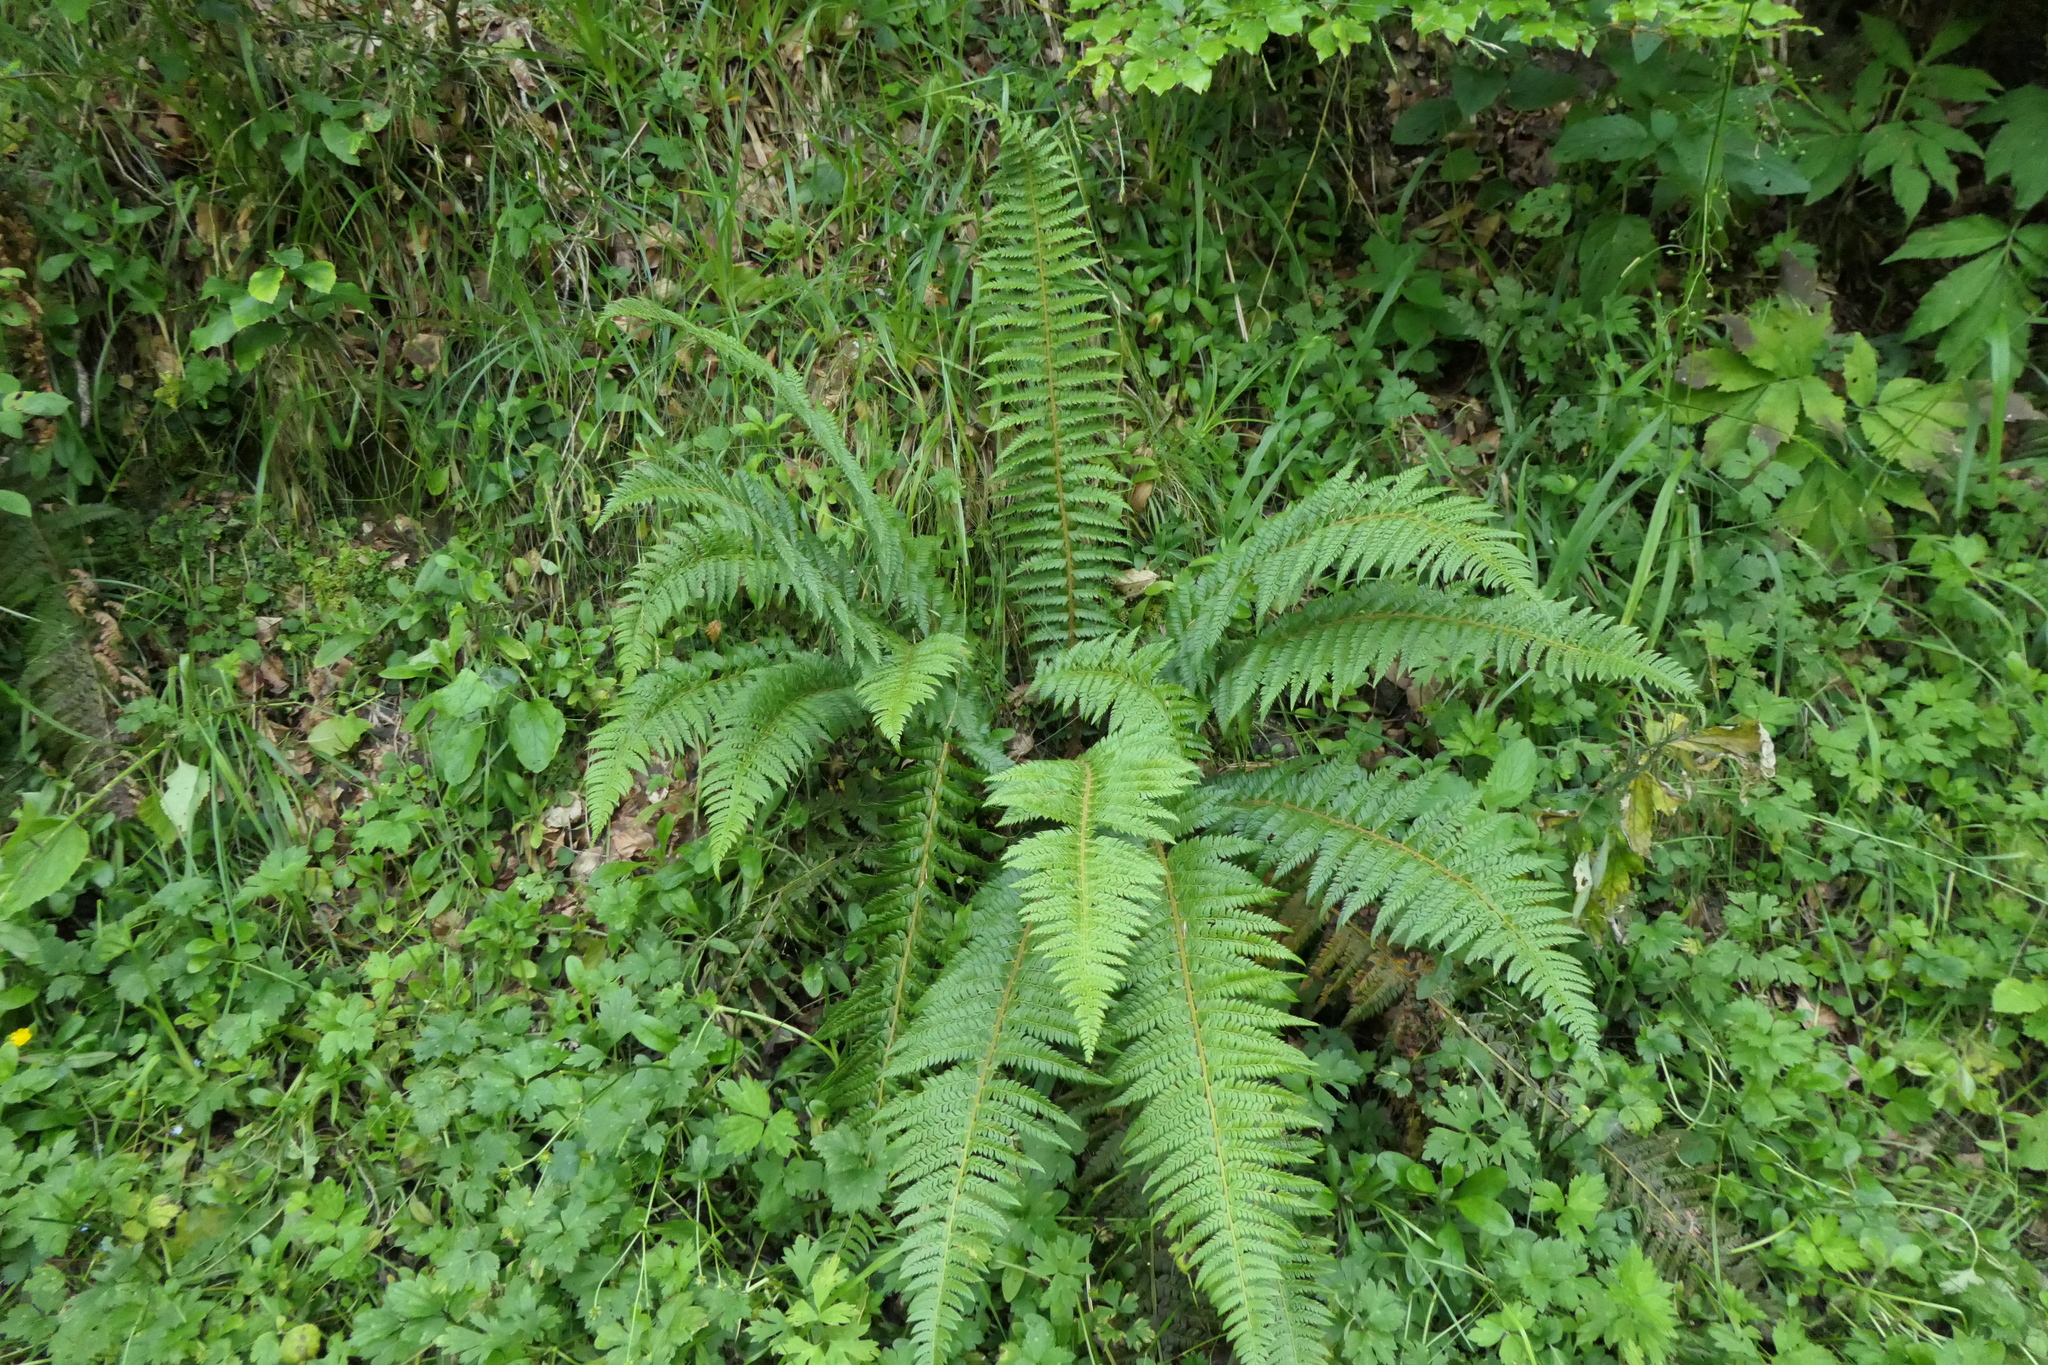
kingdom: Plantae
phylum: Tracheophyta
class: Polypodiopsida
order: Polypodiales
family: Dryopteridaceae
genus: Polystichum
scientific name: Polystichum aculeatum
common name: Hard shield-fern
